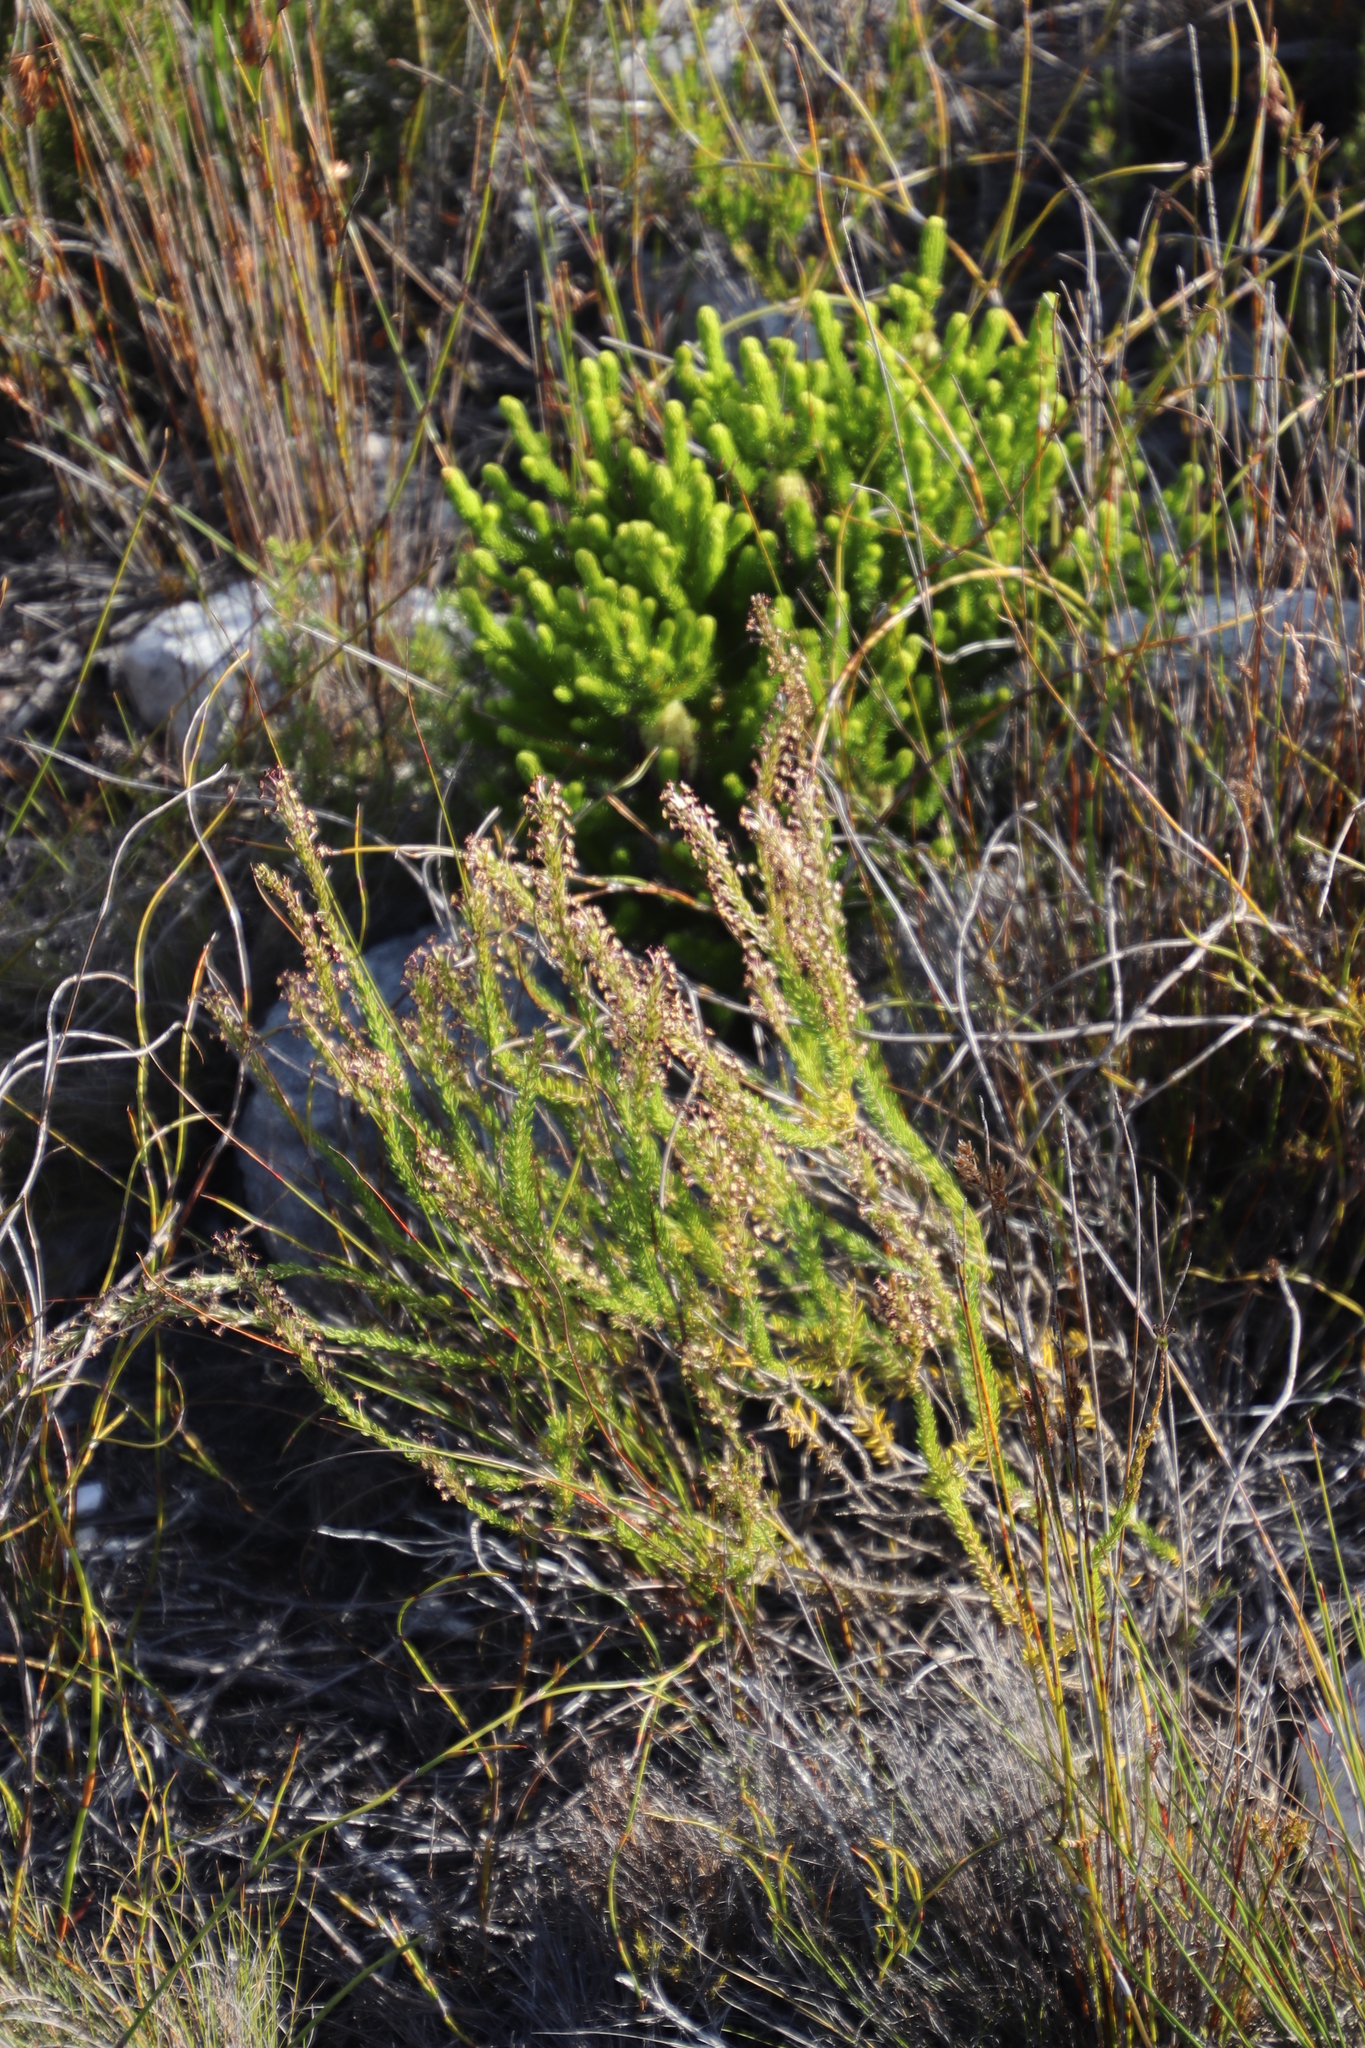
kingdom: Plantae
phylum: Tracheophyta
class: Magnoliopsida
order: Lamiales
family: Scrophulariaceae
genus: Microdon
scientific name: Microdon dubius
